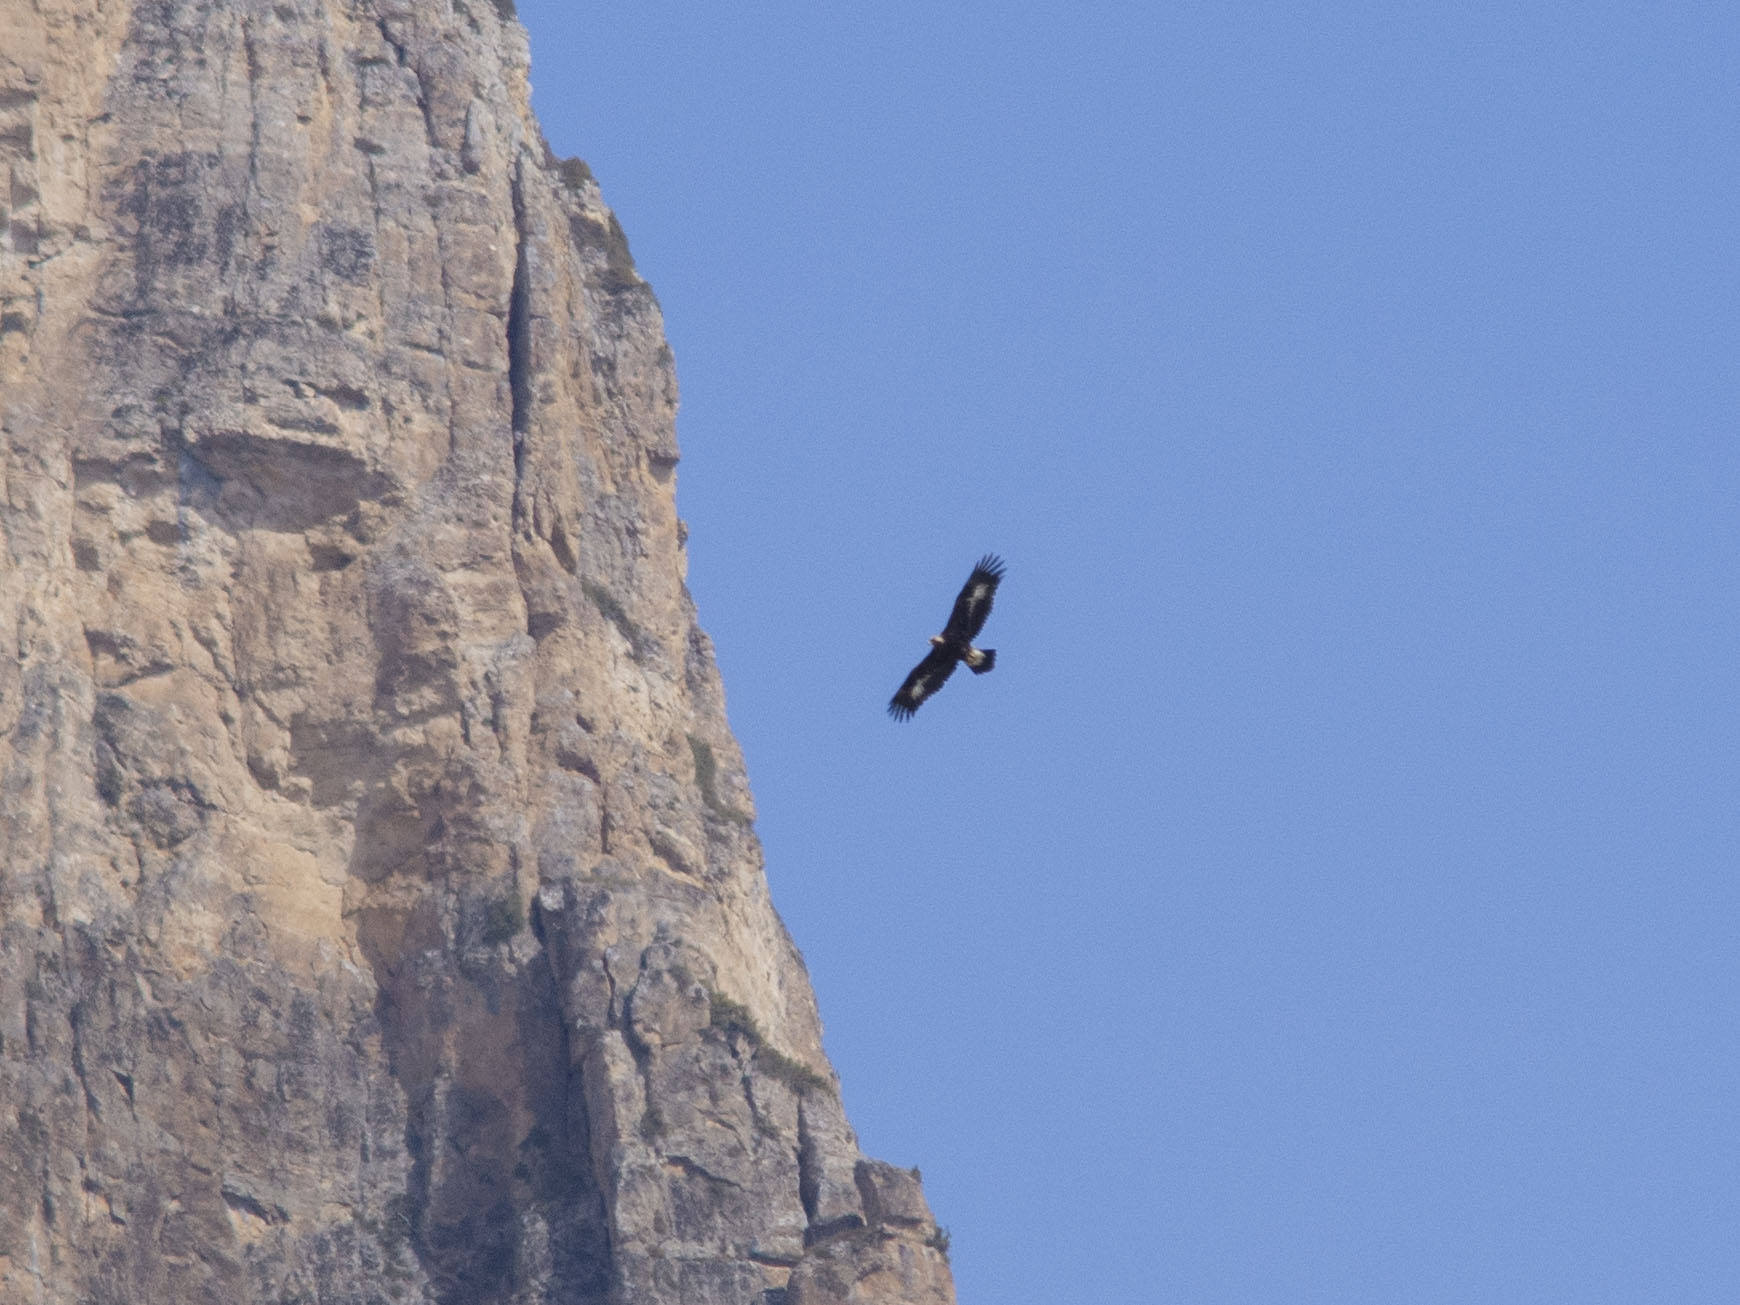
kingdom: Animalia
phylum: Chordata
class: Aves
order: Accipitriformes
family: Accipitridae
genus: Aquila
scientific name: Aquila chrysaetos
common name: Golden eagle
